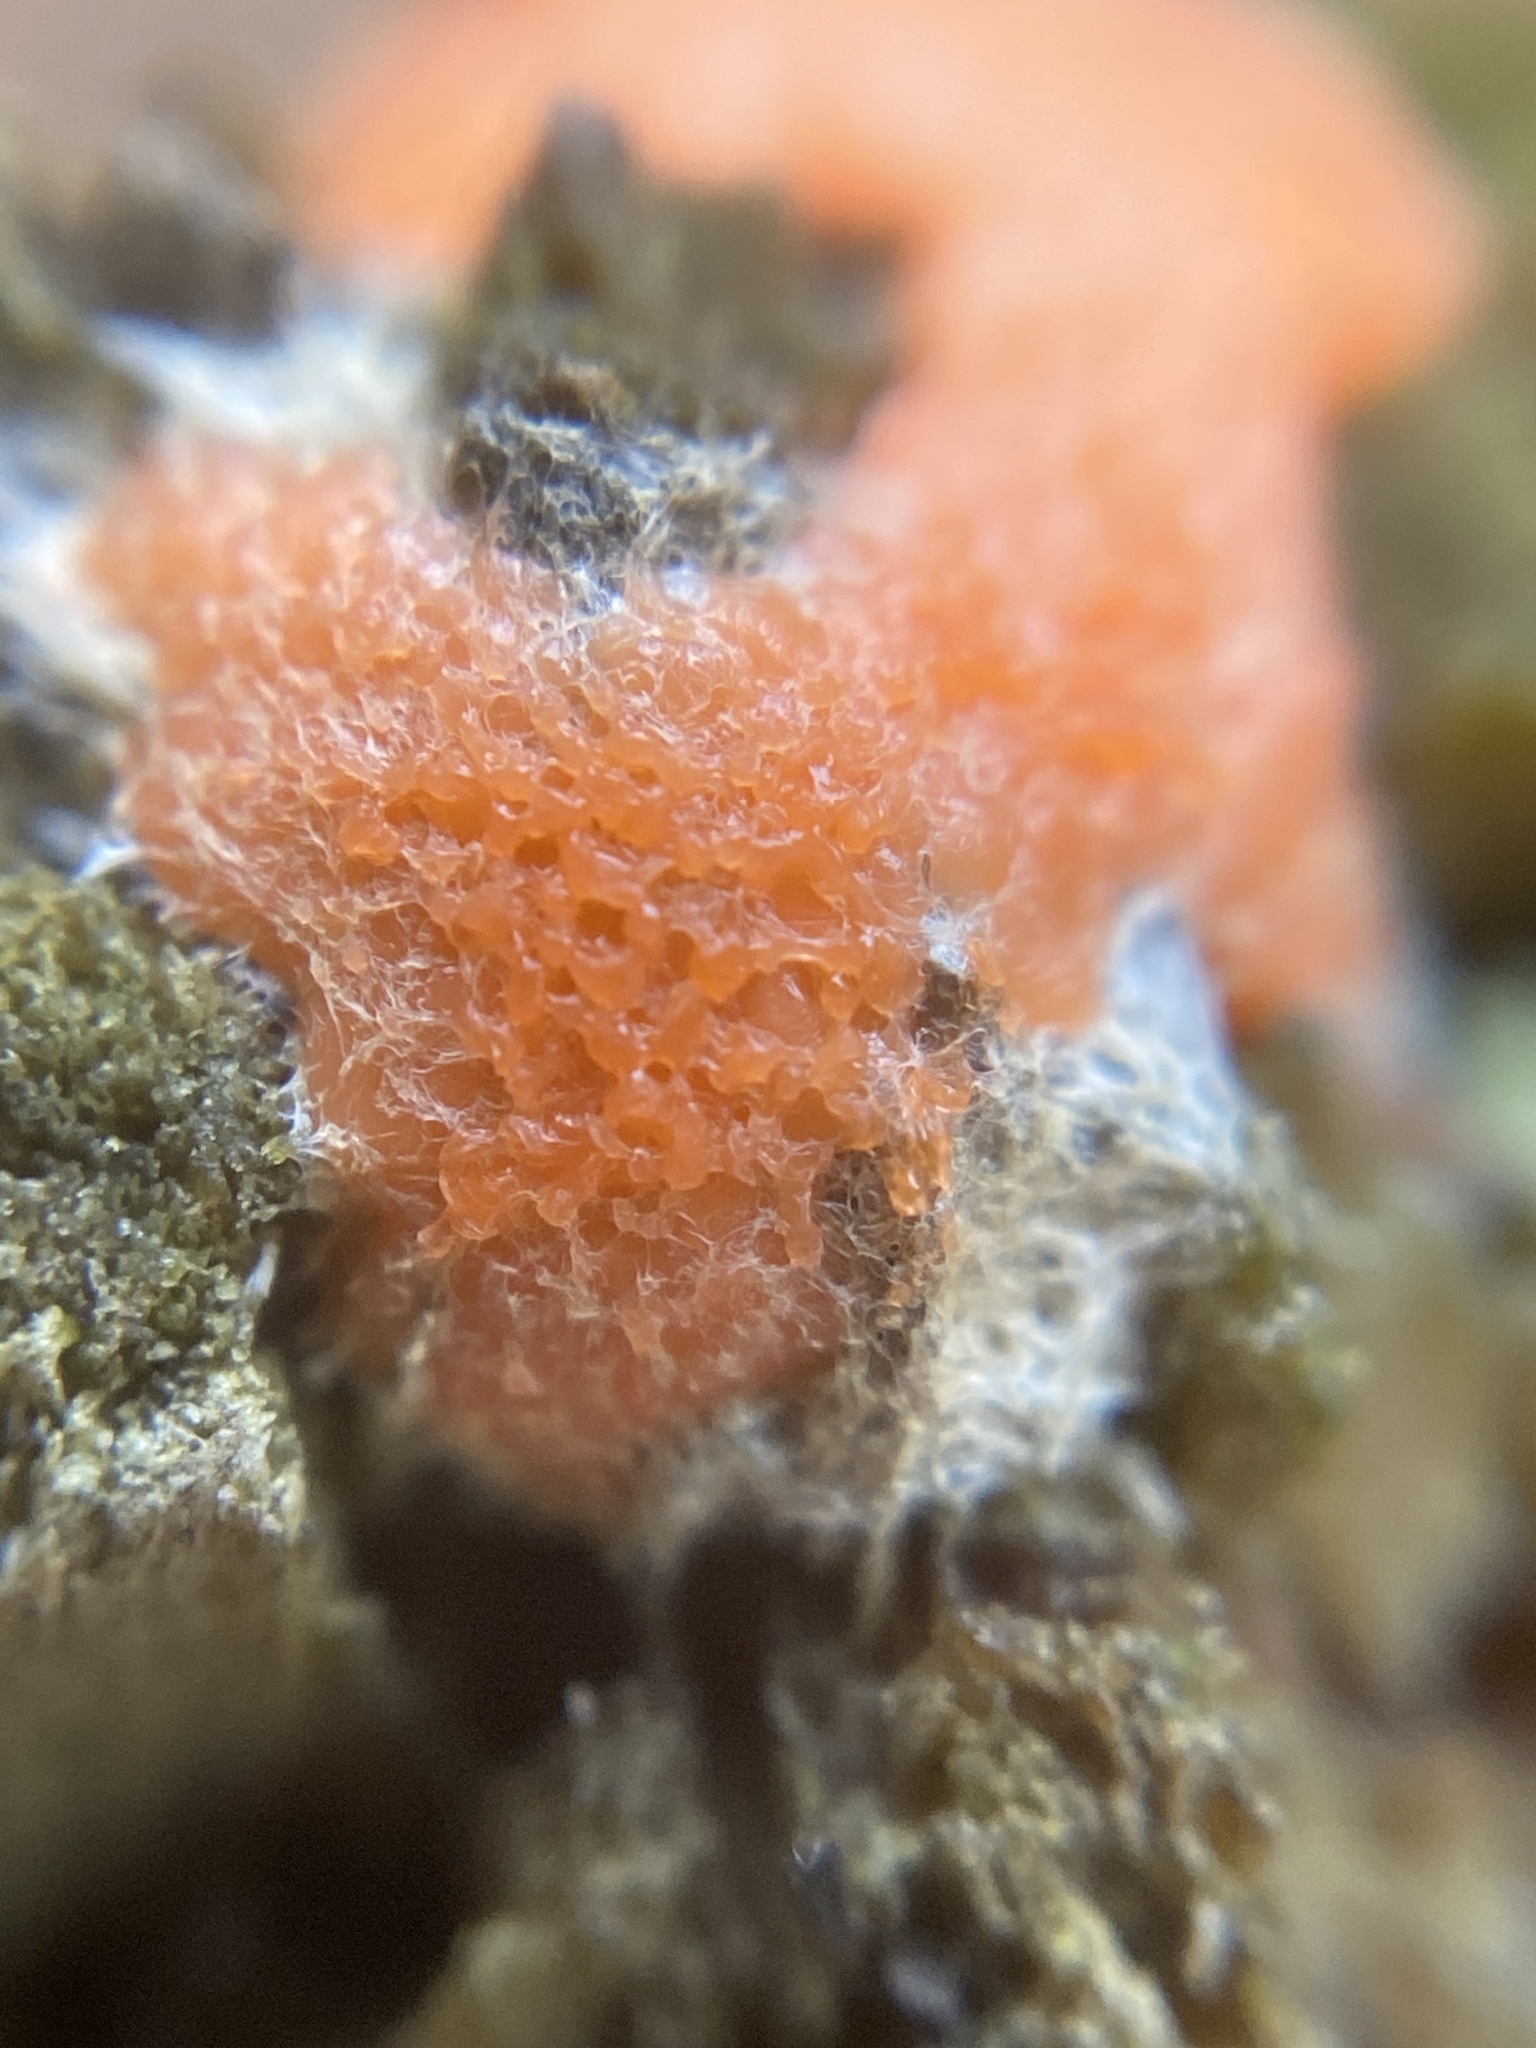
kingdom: Protozoa
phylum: Mycetozoa
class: Myxomycetes
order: Cribrariales
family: Tubiferaceae
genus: Licaethalium
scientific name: Licaethalium olivaceum
